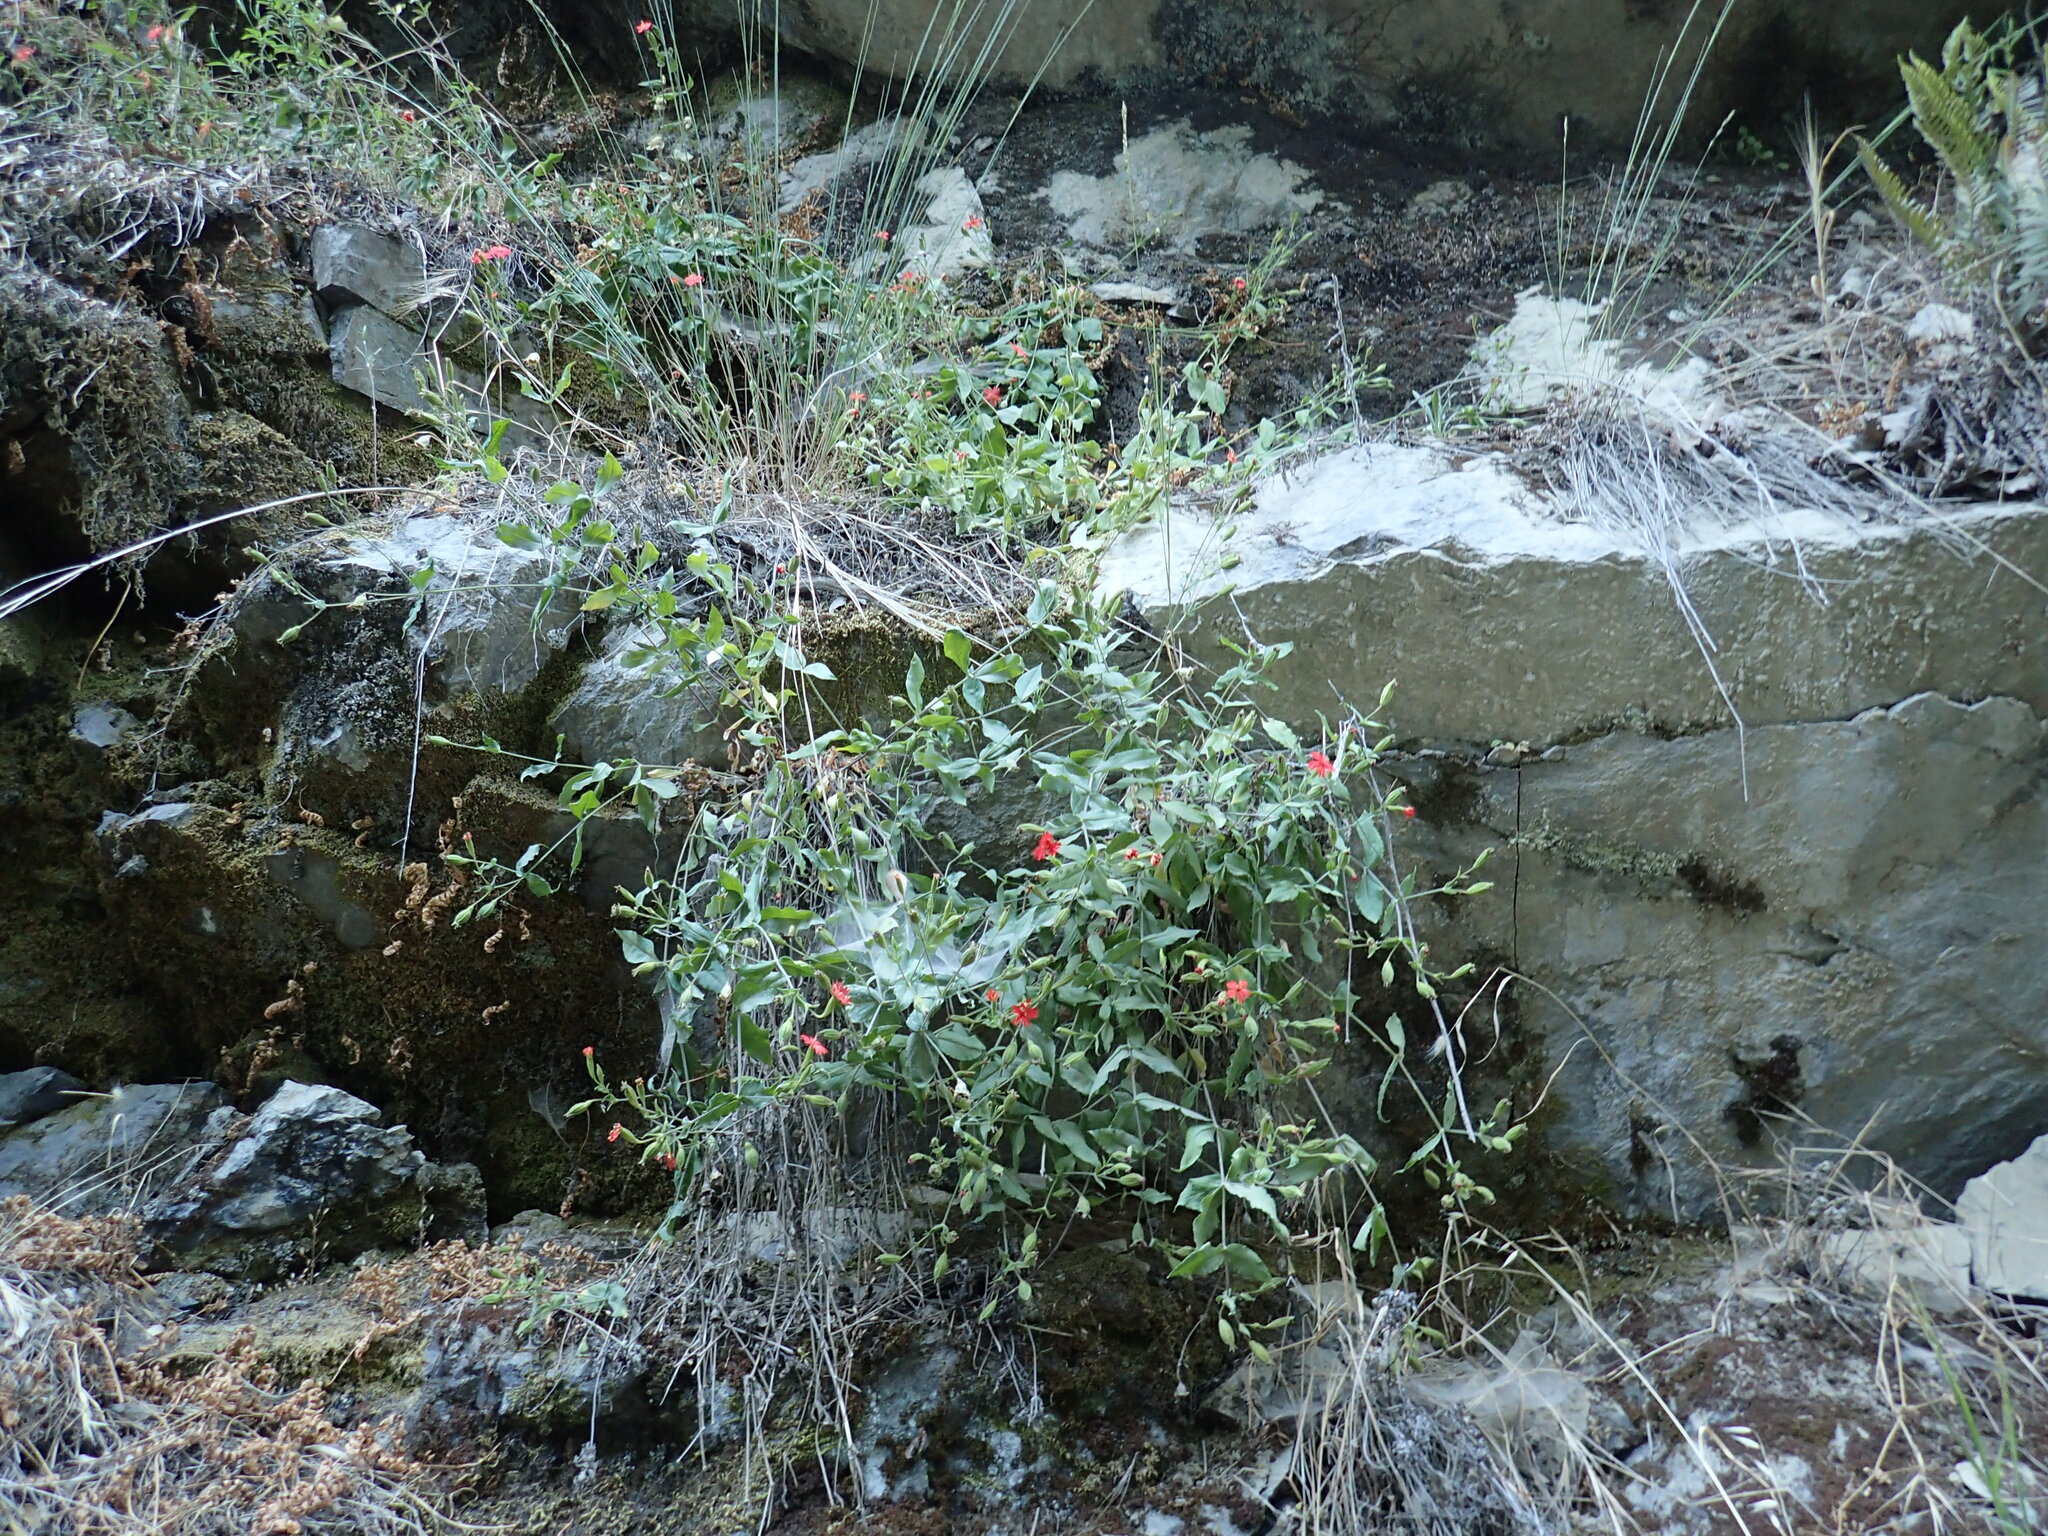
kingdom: Plantae
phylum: Tracheophyta
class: Magnoliopsida
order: Caryophyllales
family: Caryophyllaceae
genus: Silene
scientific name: Silene laciniata
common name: Indian-pink
